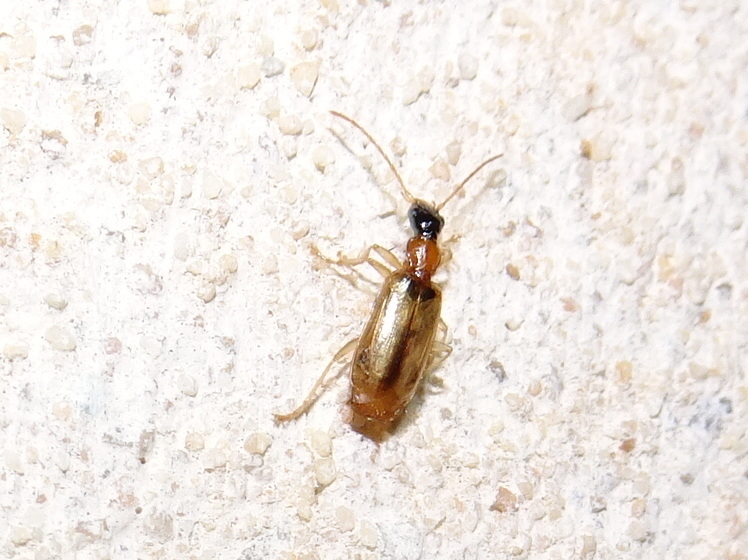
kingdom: Animalia
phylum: Arthropoda
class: Insecta
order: Coleoptera
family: Carabidae
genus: Demetrias
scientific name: Demetrias atricapillus
